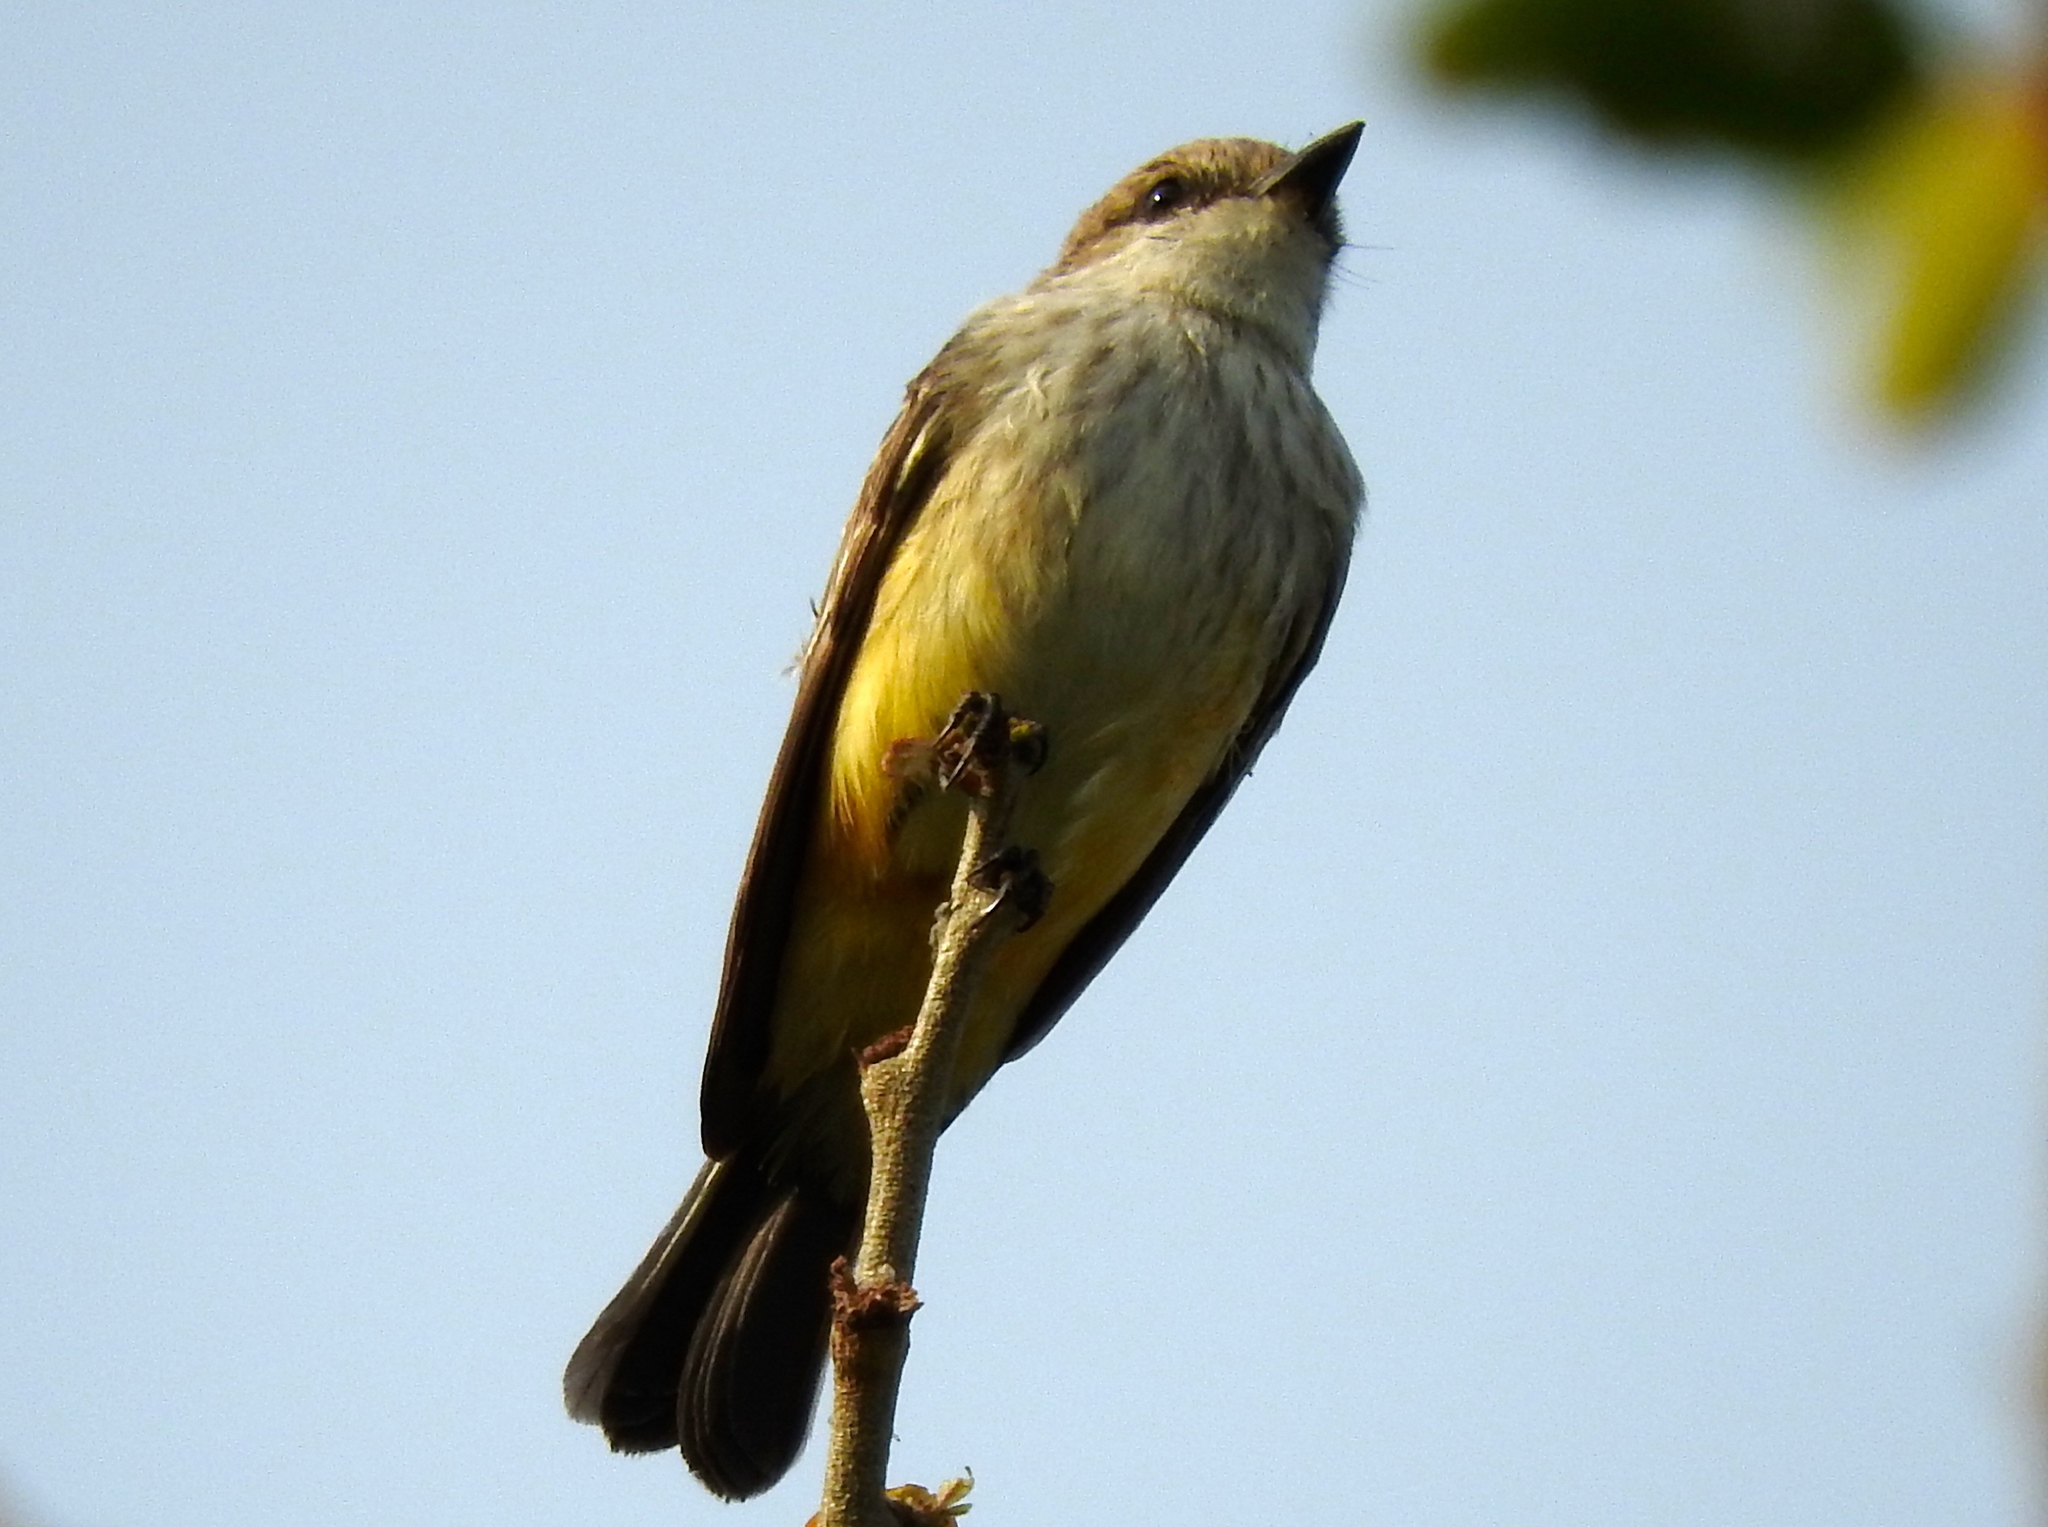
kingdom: Animalia
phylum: Chordata
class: Aves
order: Passeriformes
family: Tyrannidae
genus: Pyrocephalus
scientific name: Pyrocephalus rubinus
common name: Vermilion flycatcher
